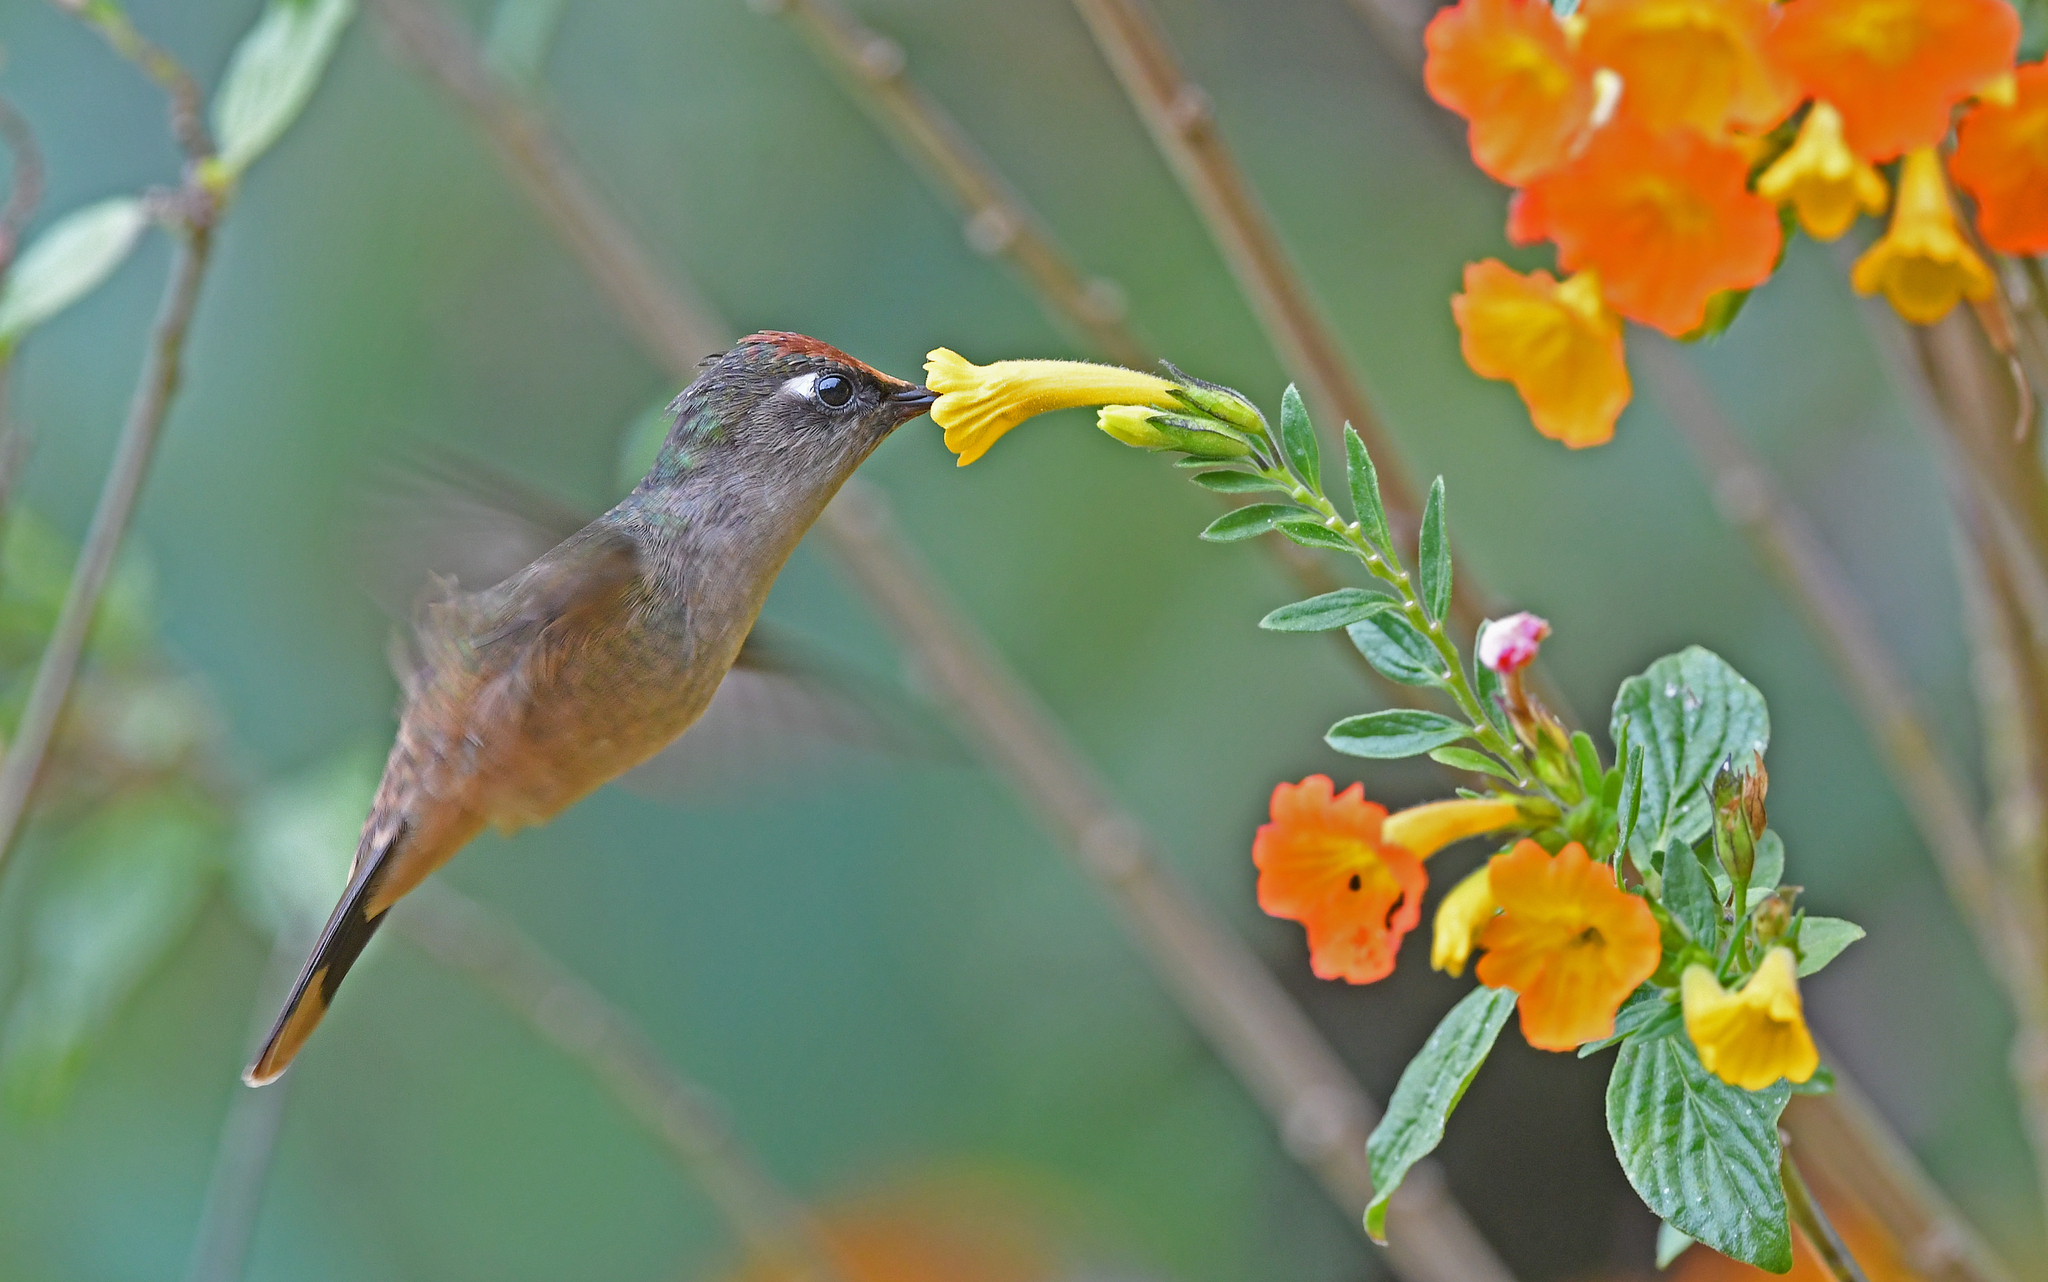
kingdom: Animalia
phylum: Chordata
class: Aves
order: Apodiformes
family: Trochilidae
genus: Anthocephala
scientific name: Anthocephala floriceps
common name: Santa marta blossomcrown
